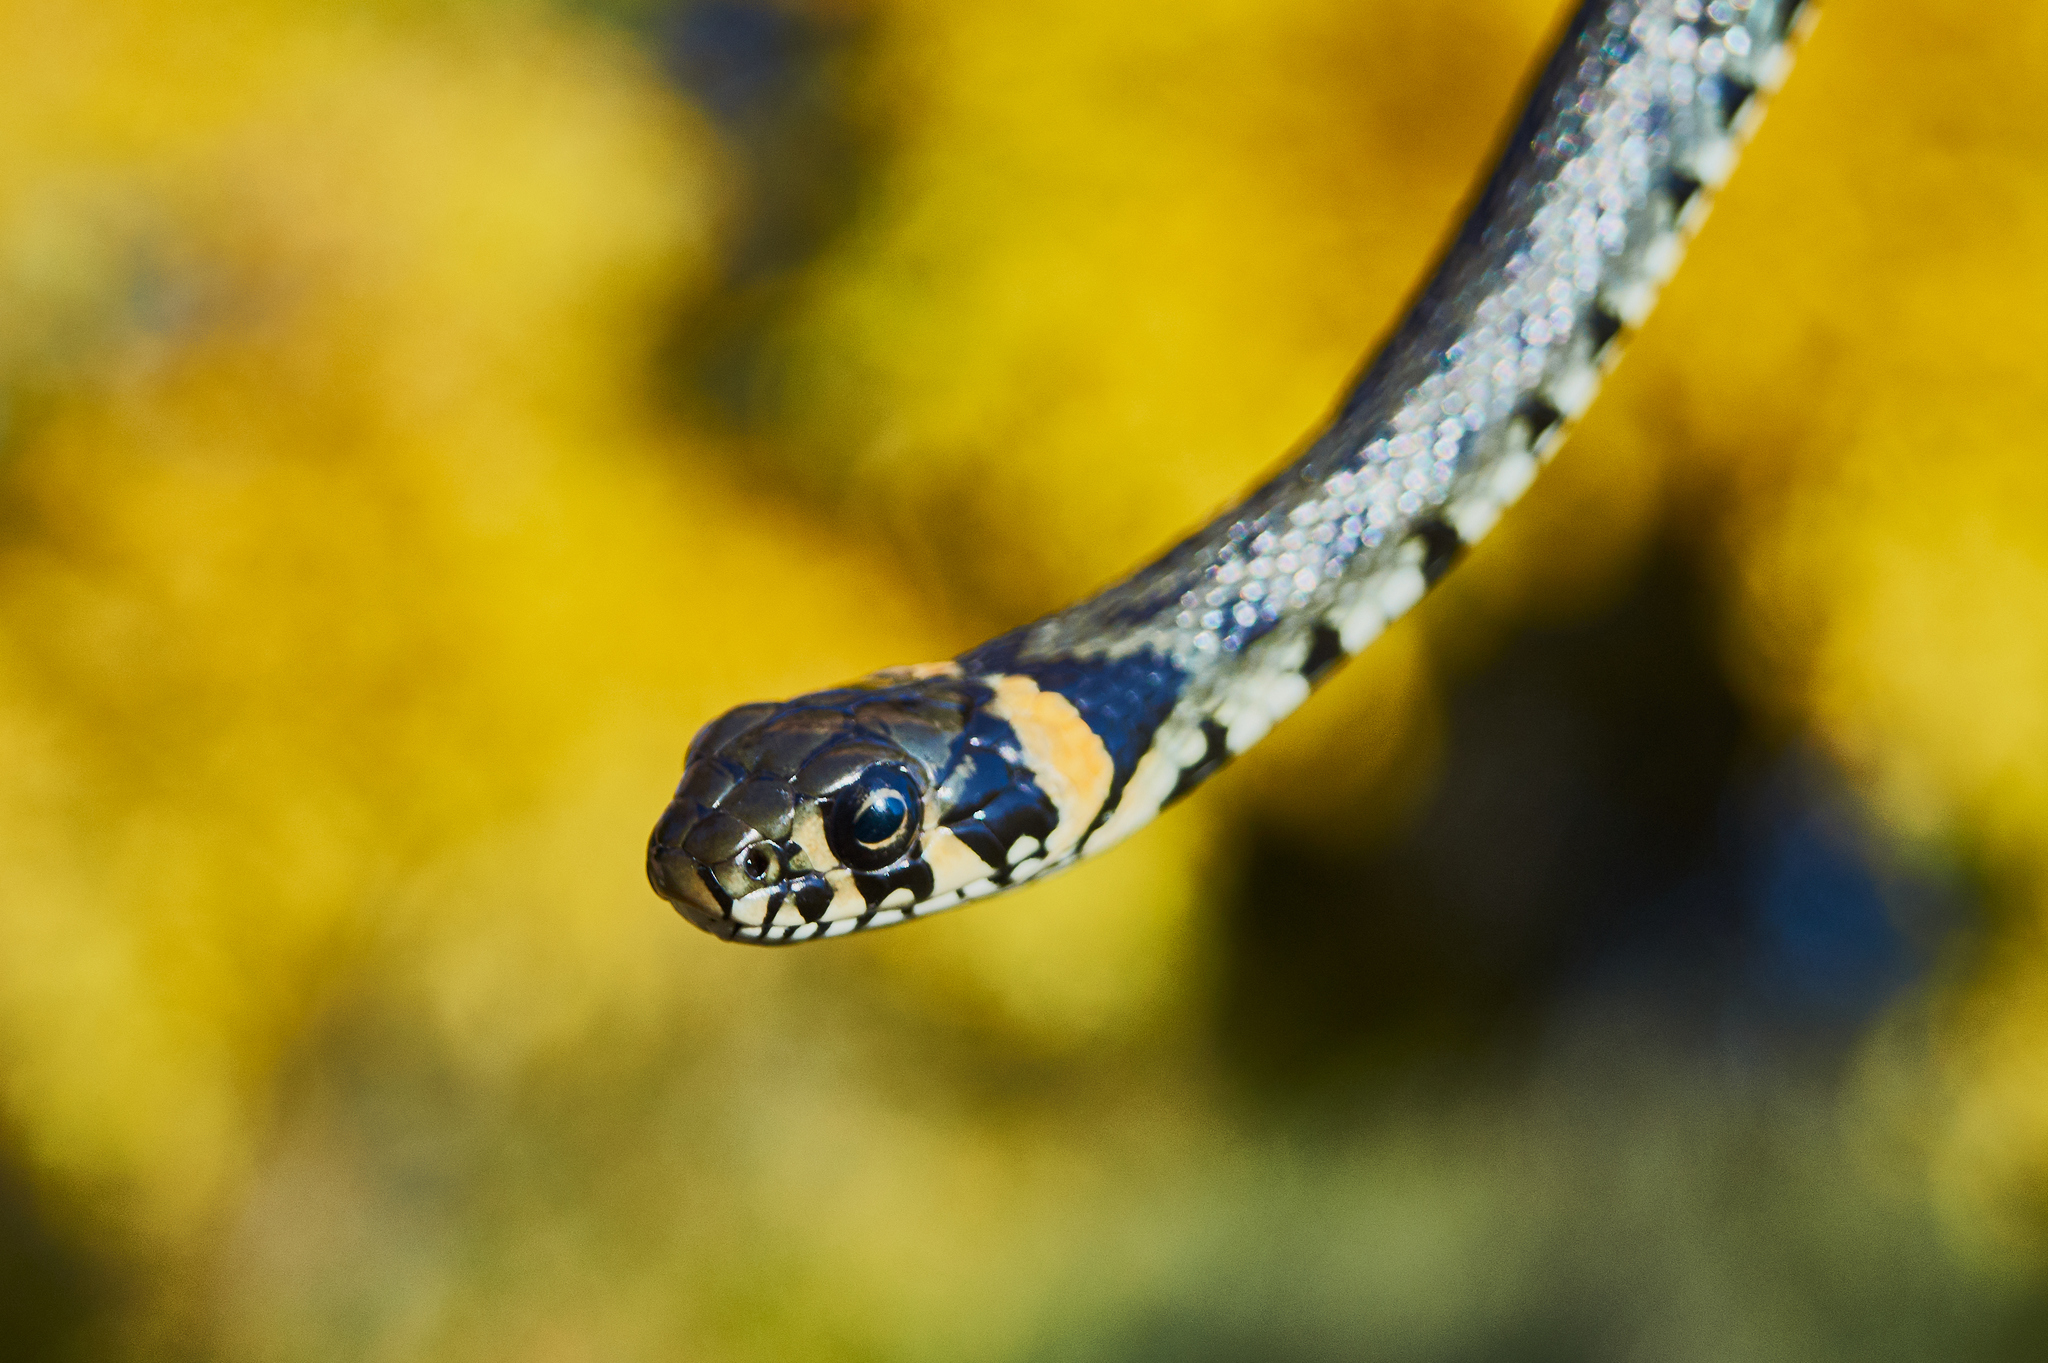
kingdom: Animalia
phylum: Chordata
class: Squamata
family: Colubridae
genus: Natrix
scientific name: Natrix natrix
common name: Grass snake
